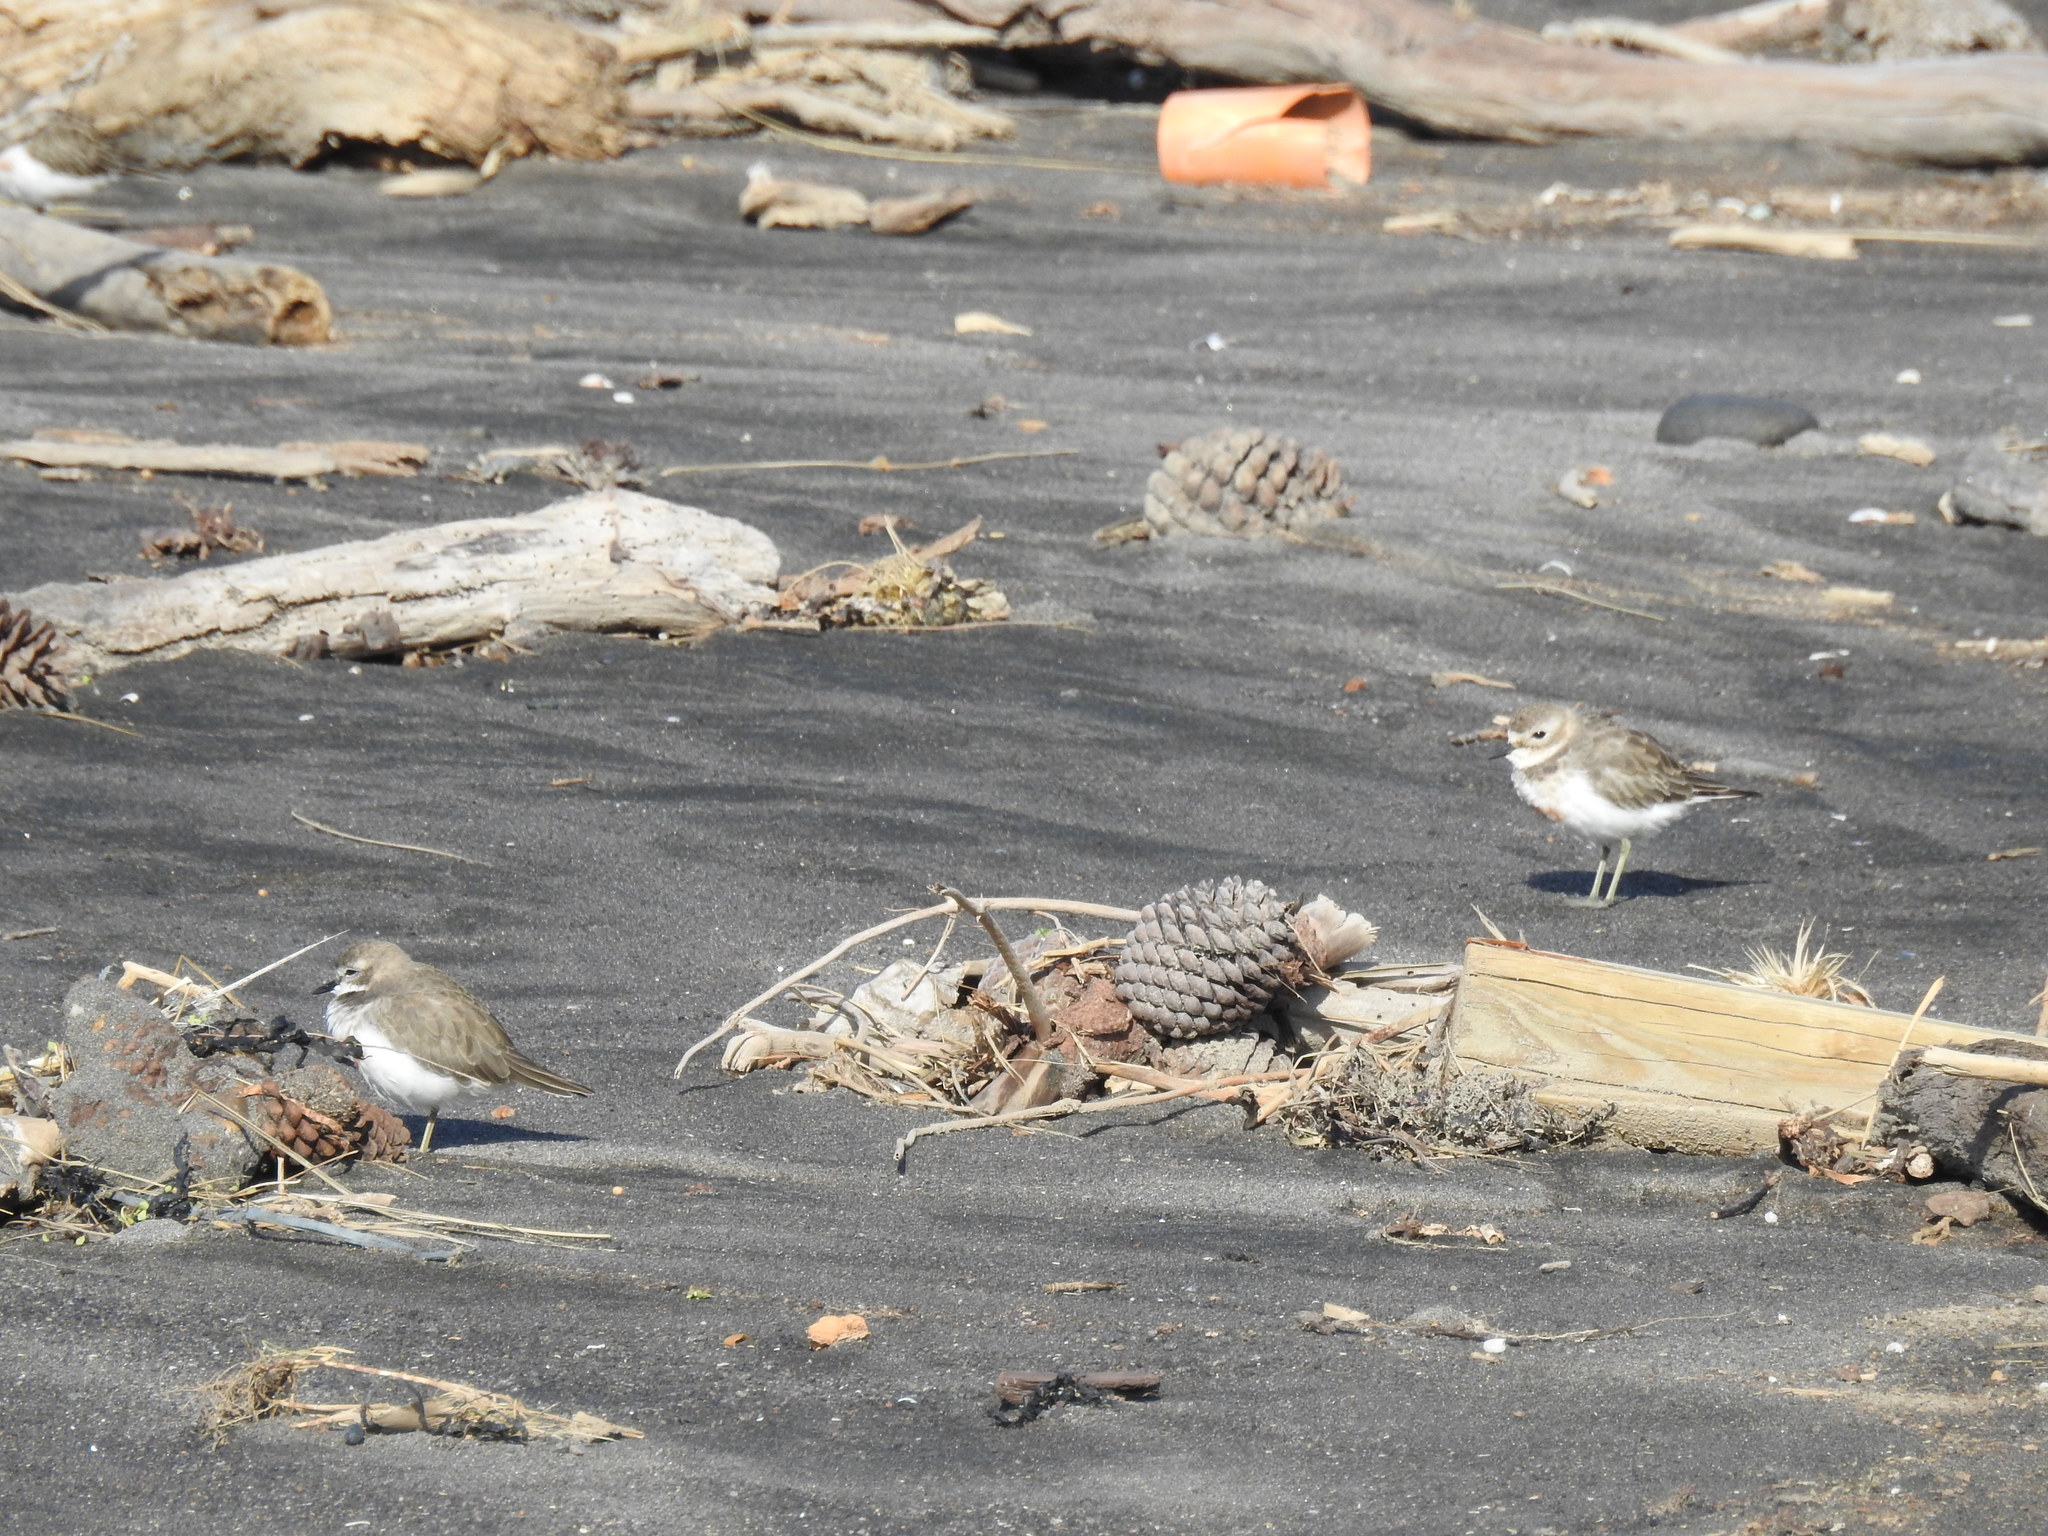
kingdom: Animalia
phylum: Chordata
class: Aves
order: Charadriiformes
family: Charadriidae
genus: Anarhynchus
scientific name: Anarhynchus
